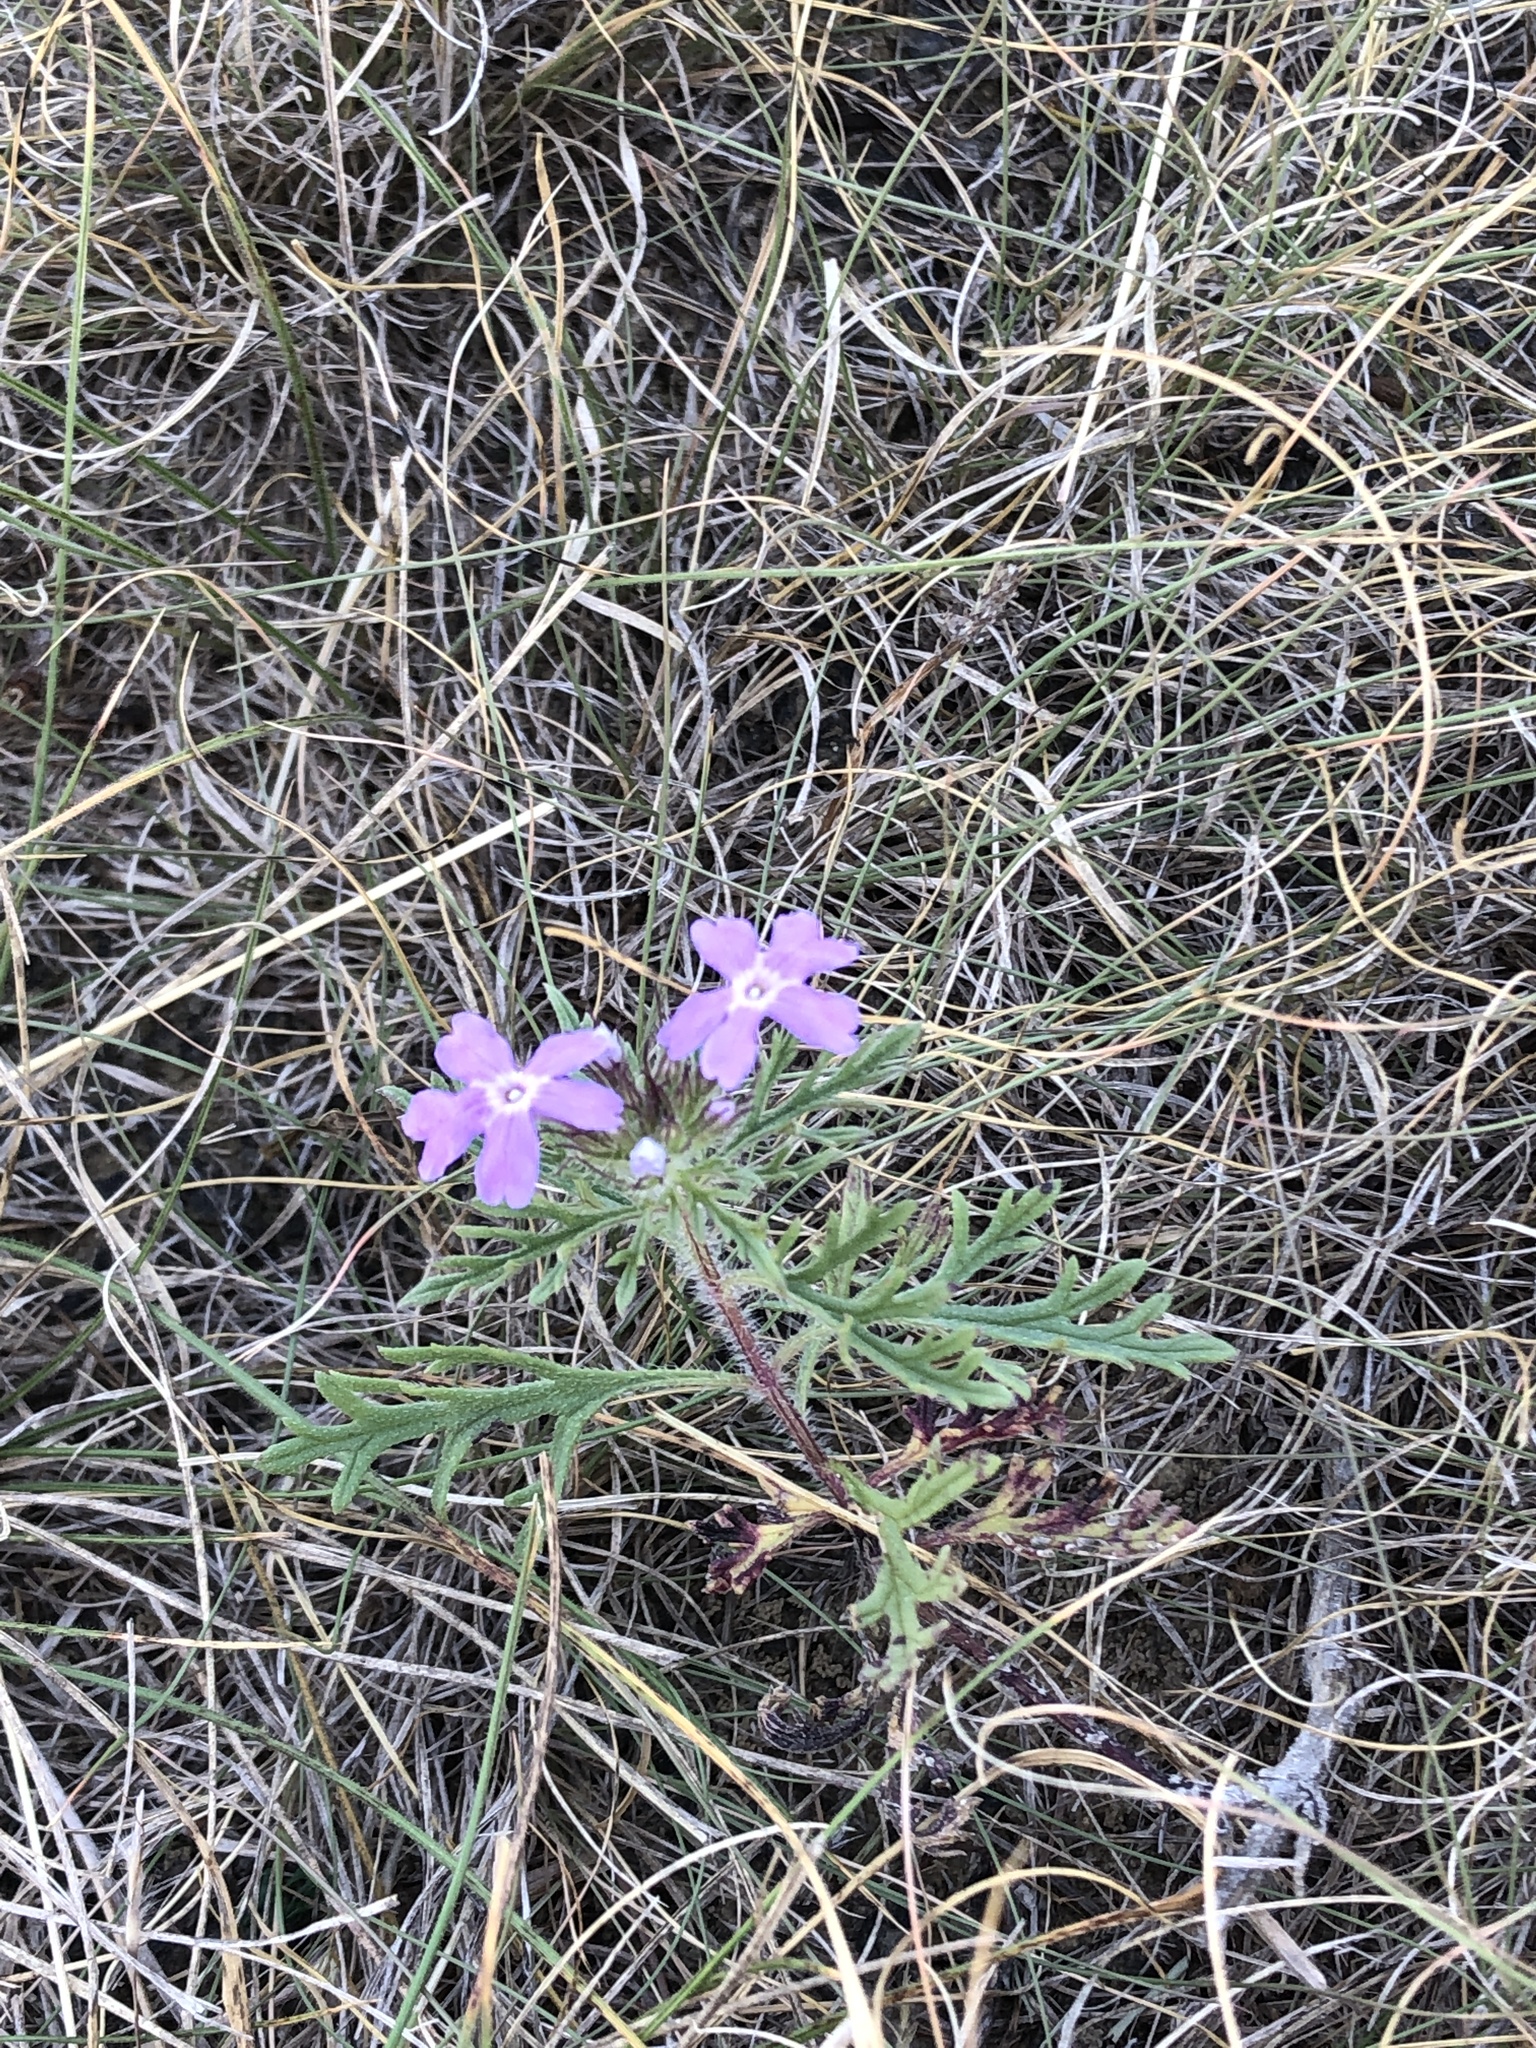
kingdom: Plantae
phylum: Tracheophyta
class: Magnoliopsida
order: Lamiales
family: Verbenaceae
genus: Verbena
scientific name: Verbena bipinnatifida
